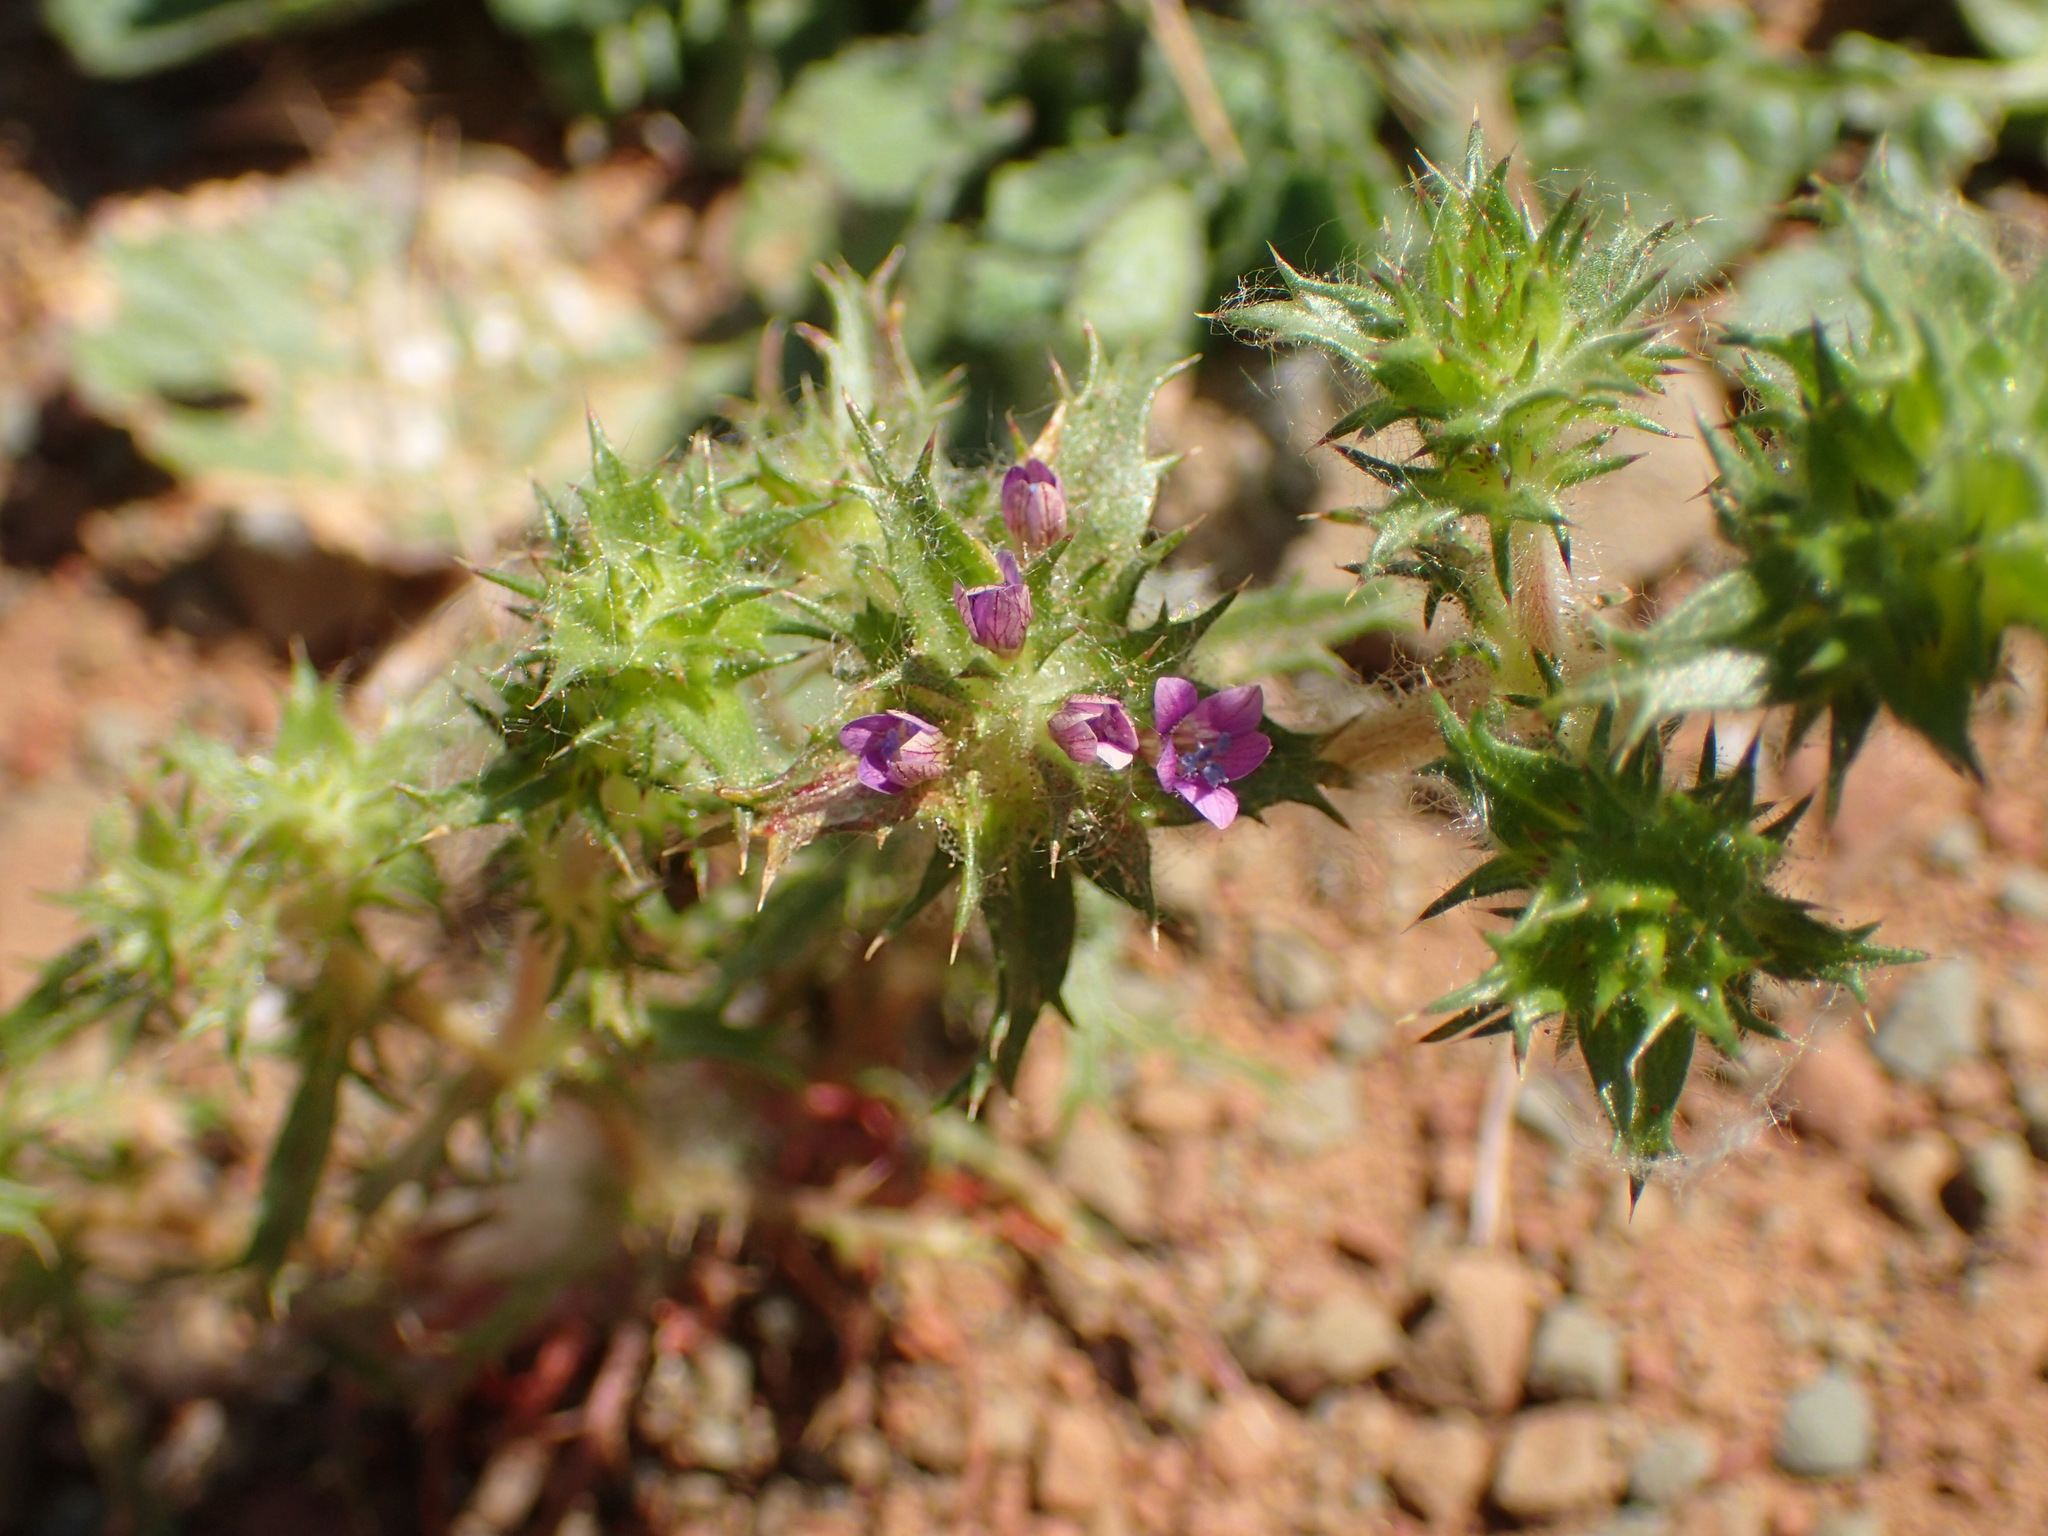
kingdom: Plantae
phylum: Tracheophyta
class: Magnoliopsida
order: Ericales
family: Polemoniaceae
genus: Navarretia
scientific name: Navarretia atractyloides
